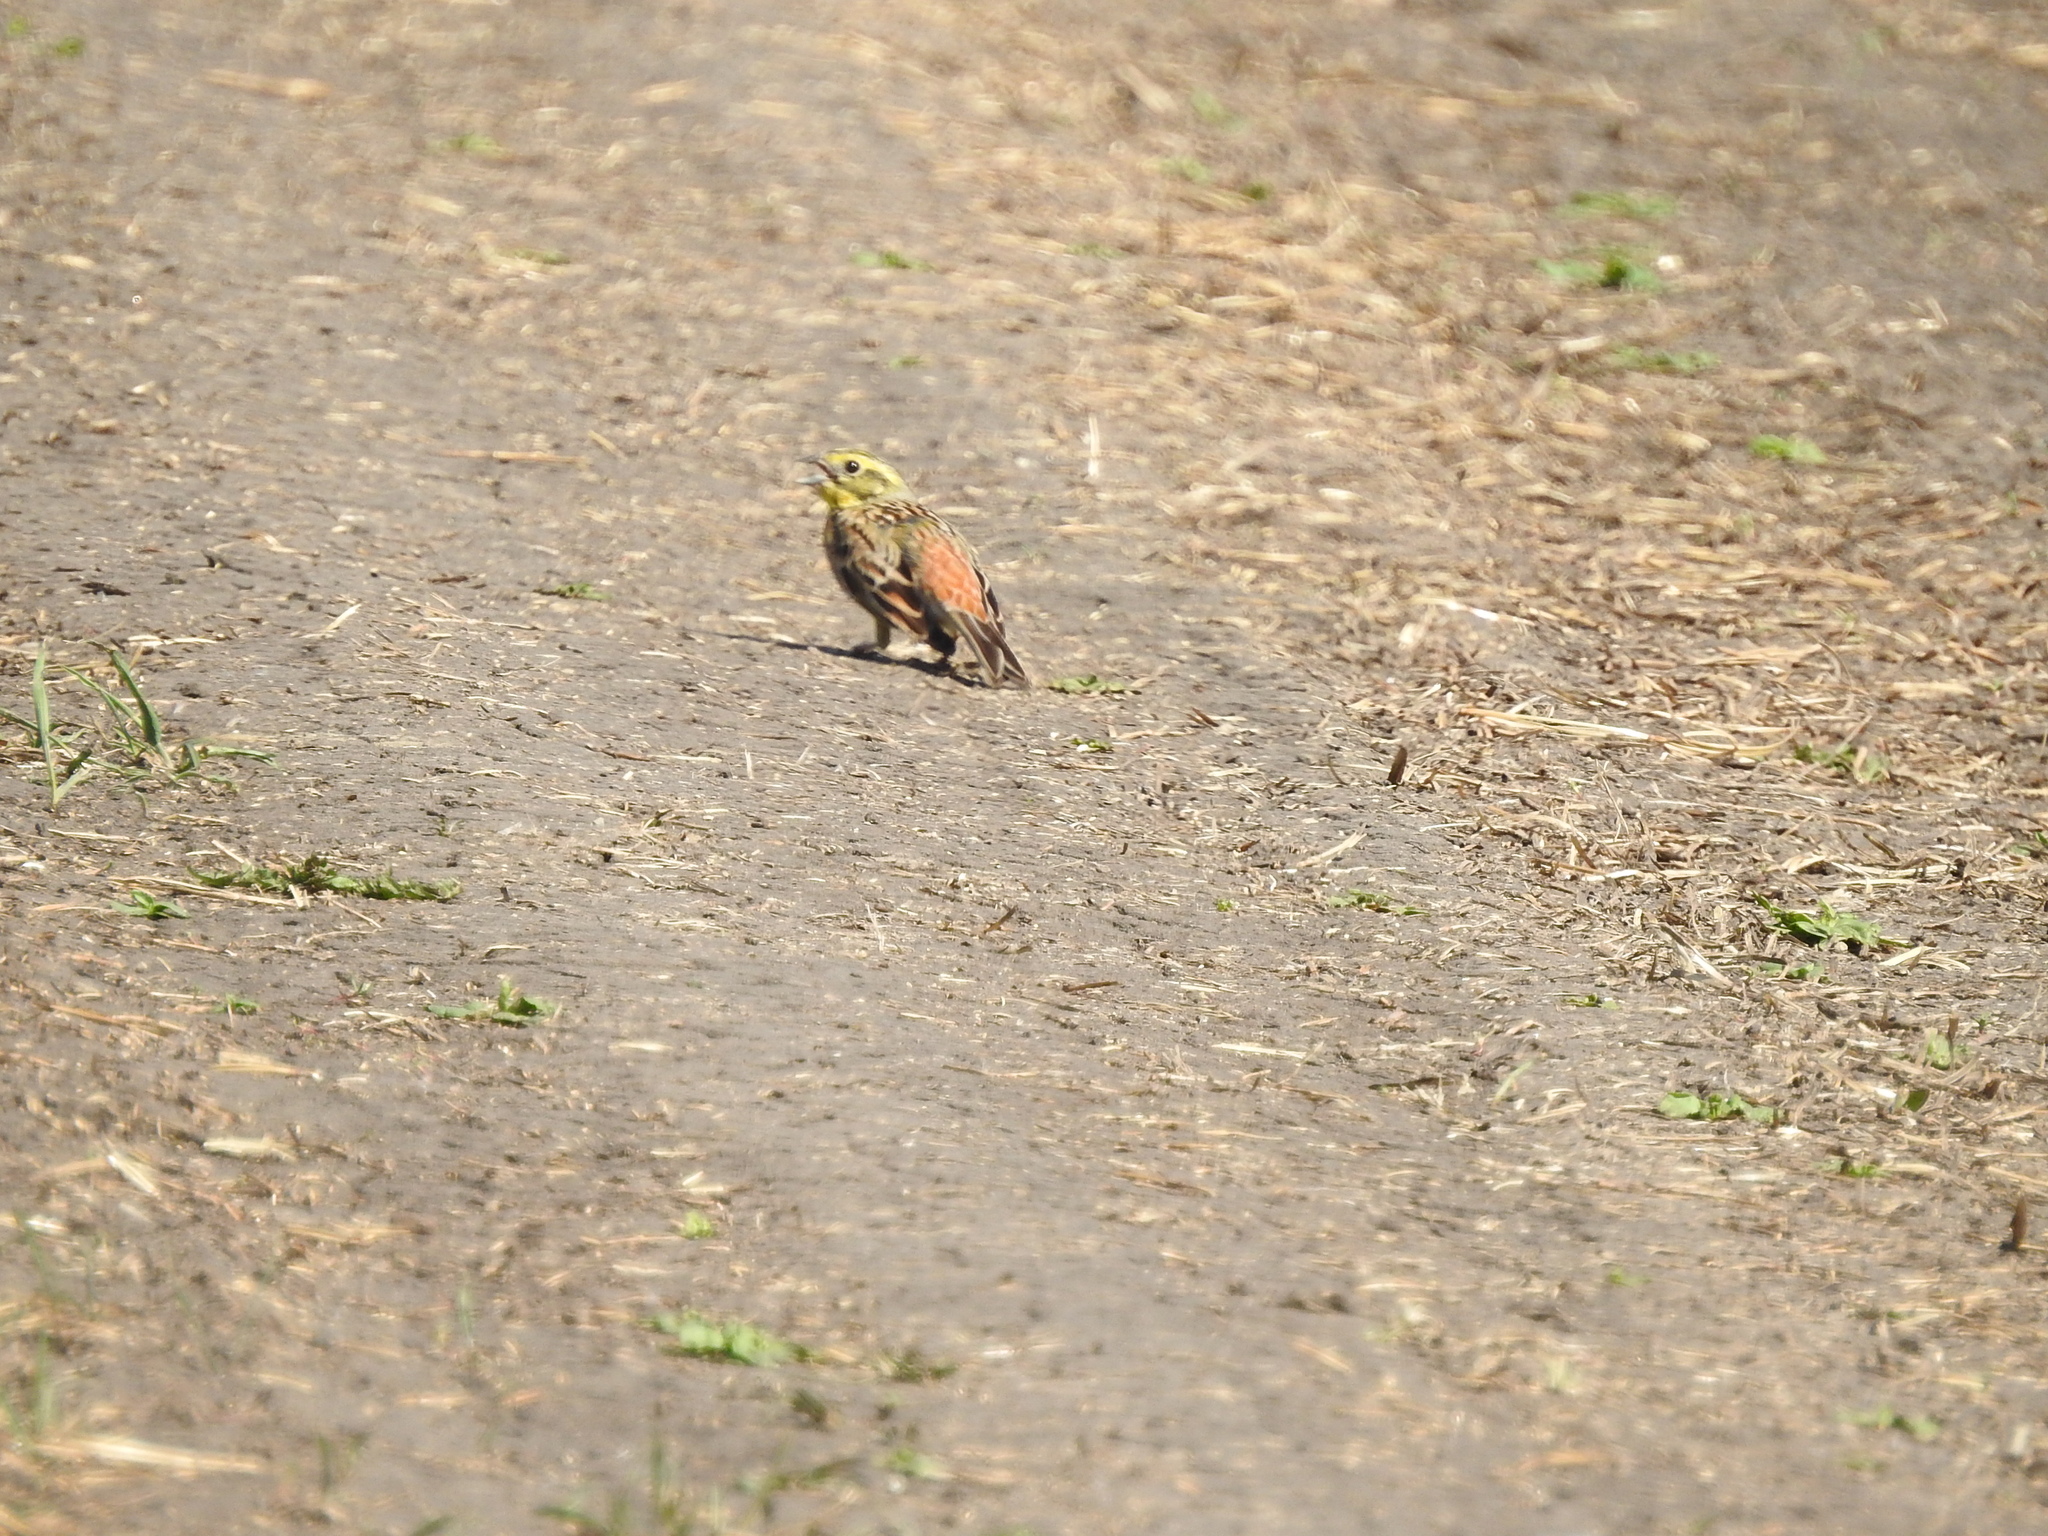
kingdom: Animalia
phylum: Chordata
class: Aves
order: Passeriformes
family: Emberizidae
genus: Emberiza
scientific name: Emberiza citrinella
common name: Yellowhammer
